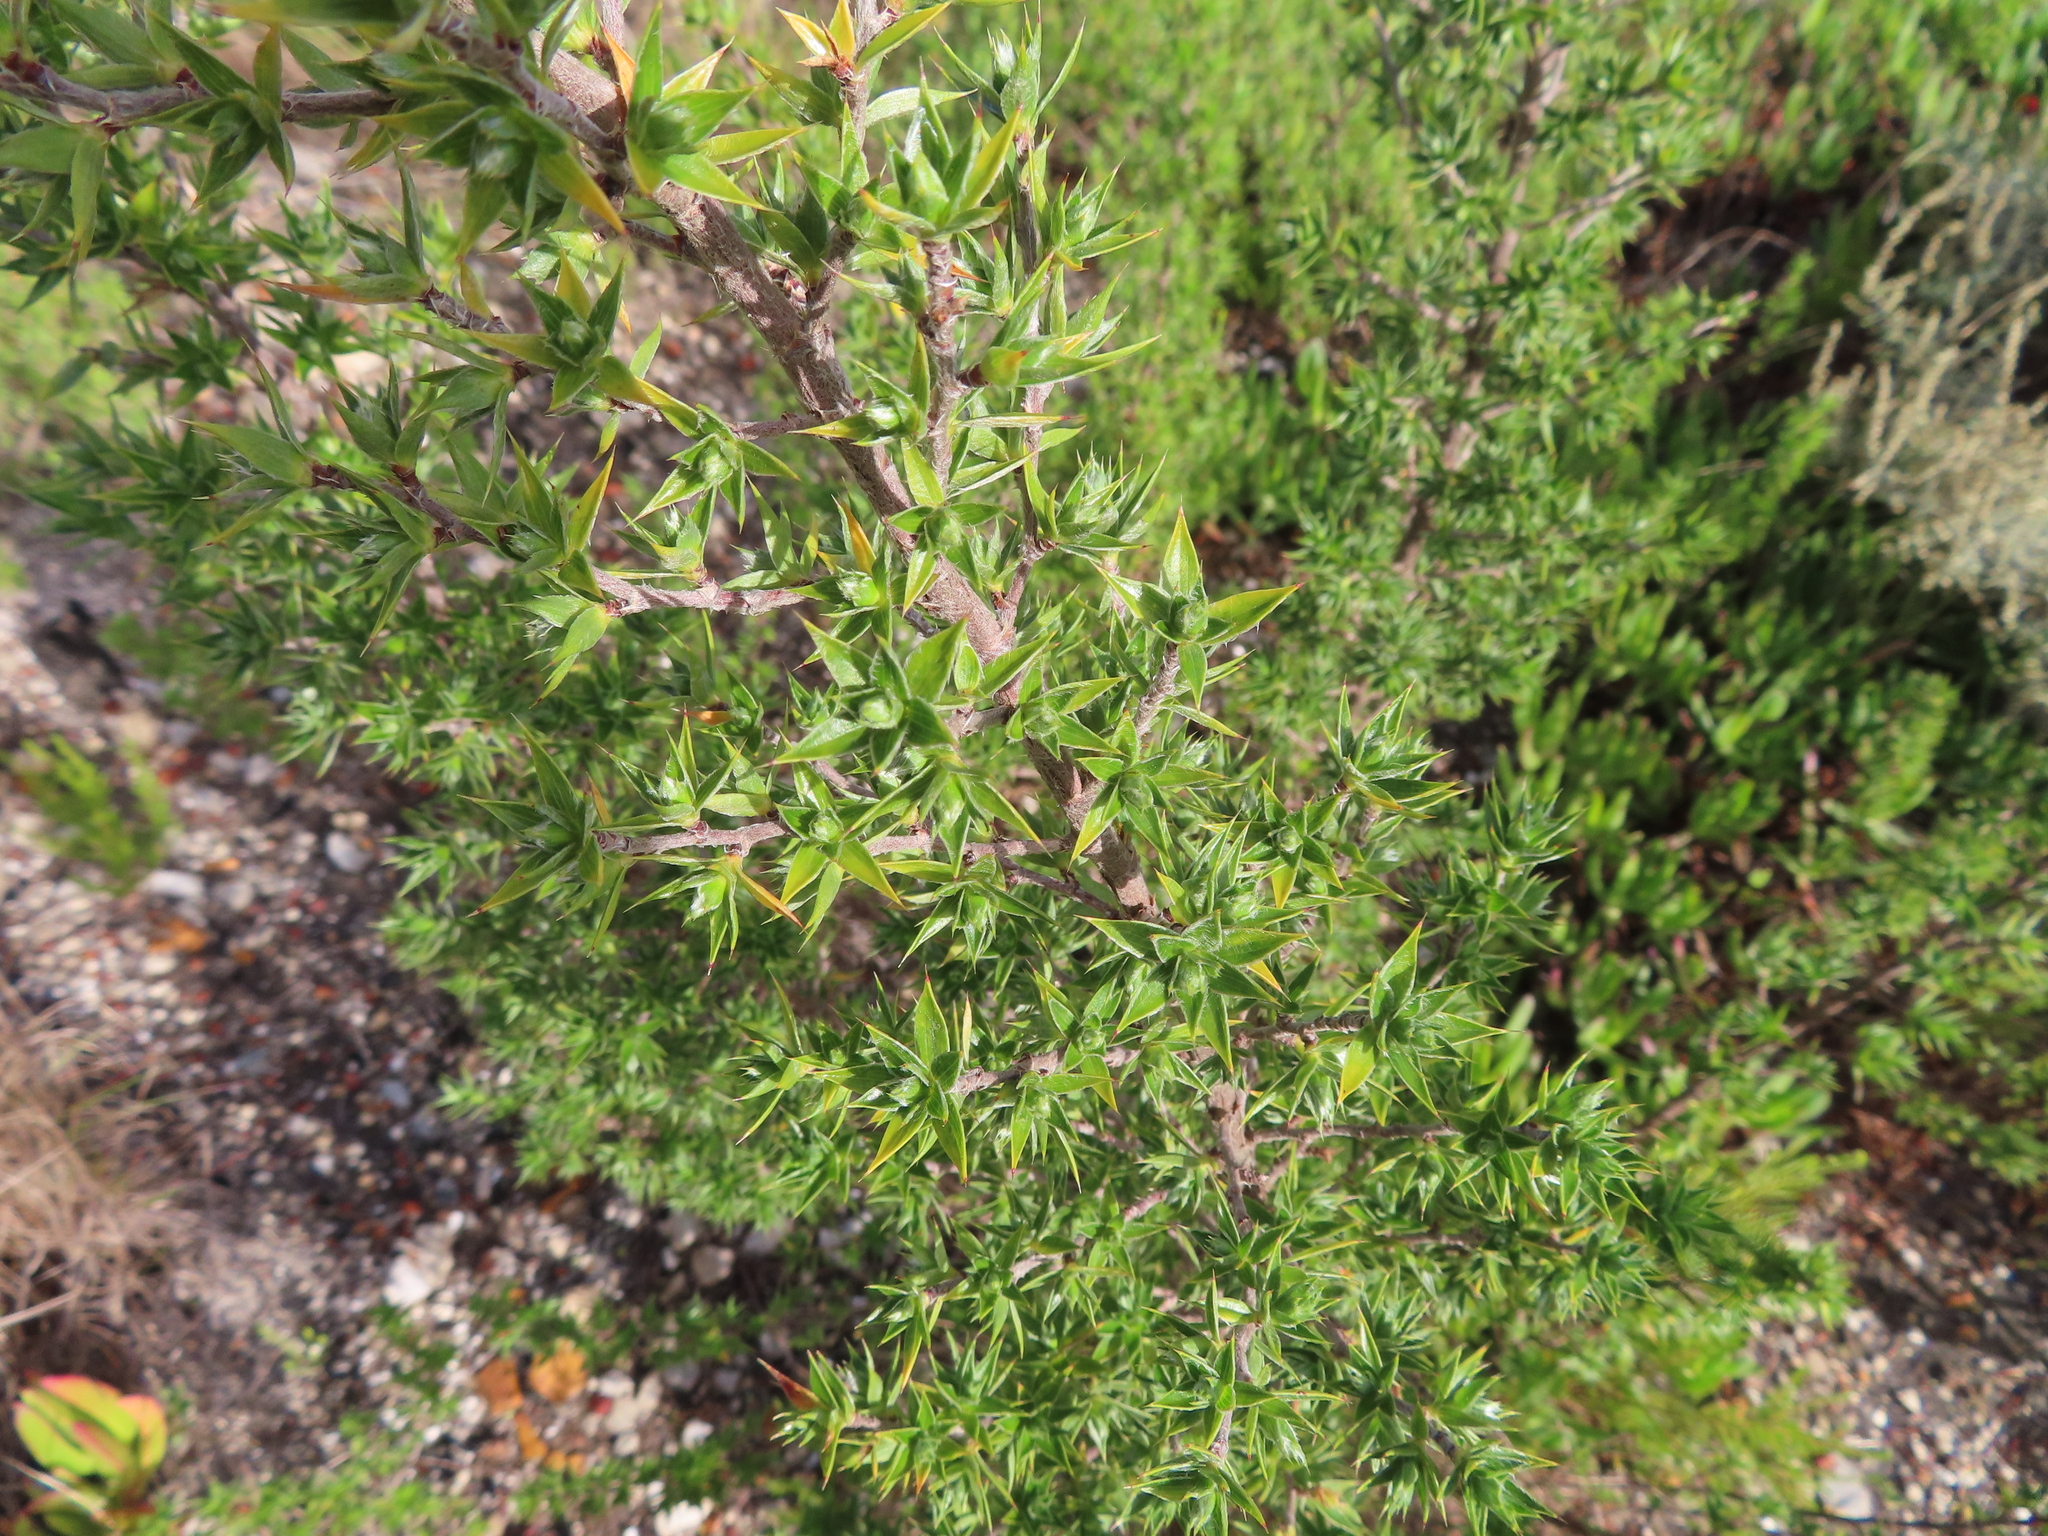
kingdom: Plantae
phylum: Tracheophyta
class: Magnoliopsida
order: Rosales
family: Rosaceae
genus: Cliffortia
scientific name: Cliffortia ruscifolia
